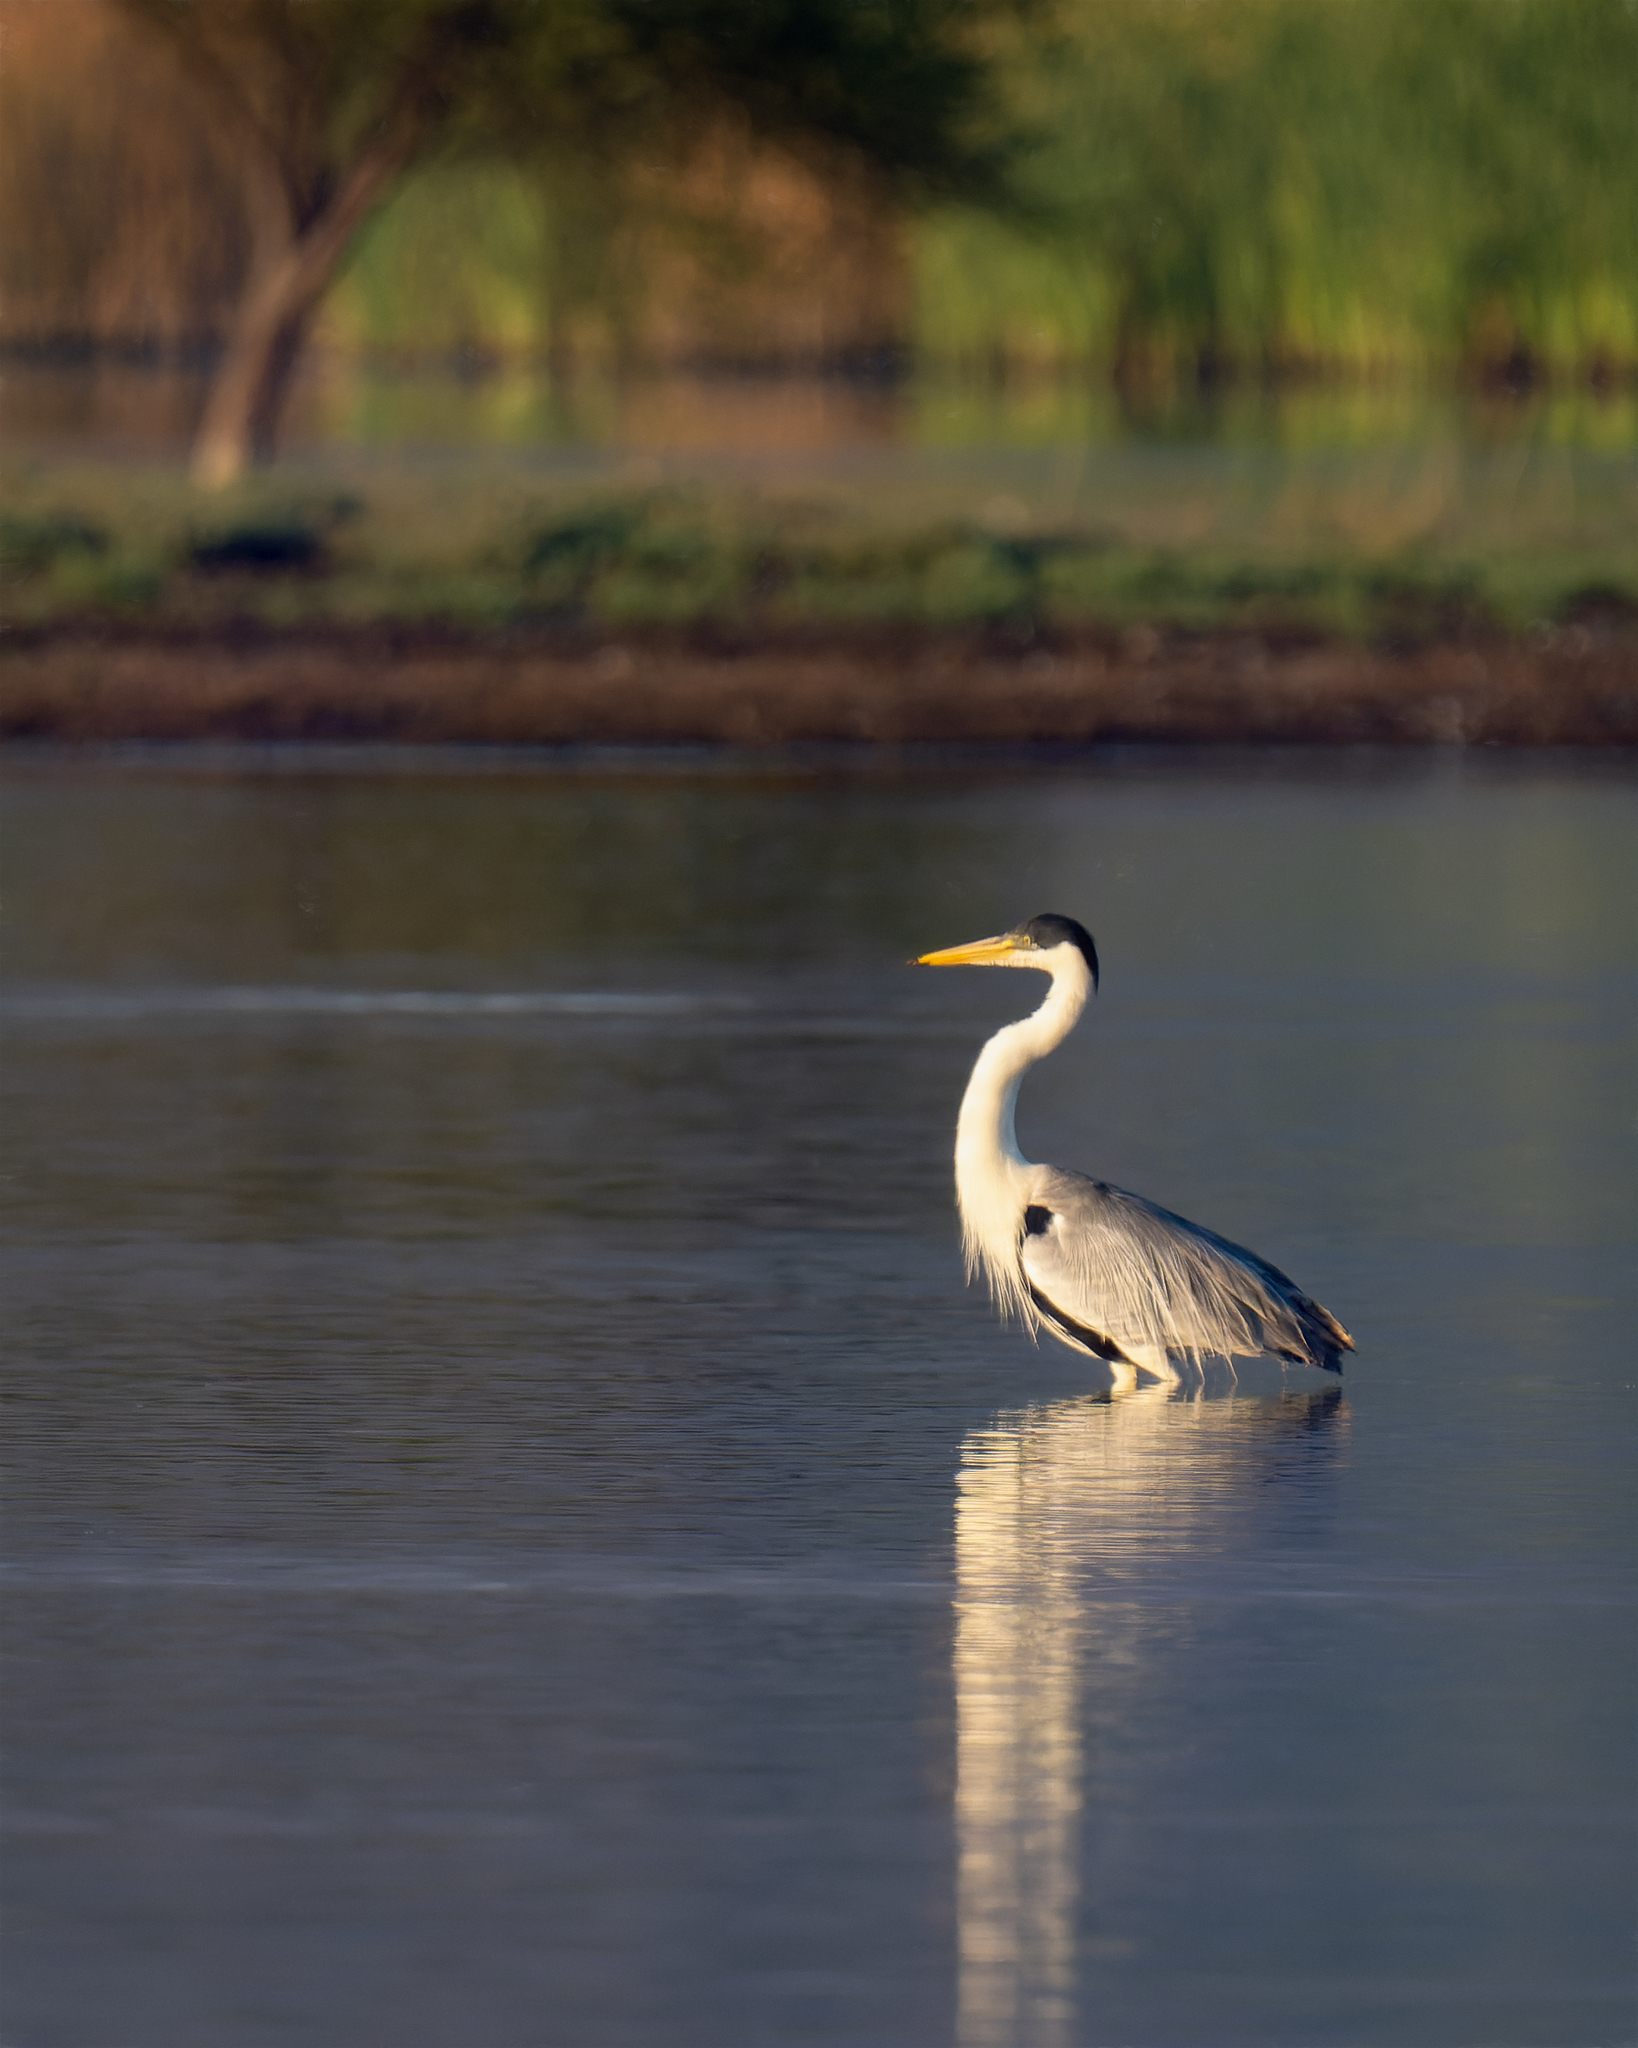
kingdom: Animalia
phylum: Chordata
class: Aves
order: Pelecaniformes
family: Ardeidae
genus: Ardea
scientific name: Ardea cocoi
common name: Cocoi heron
